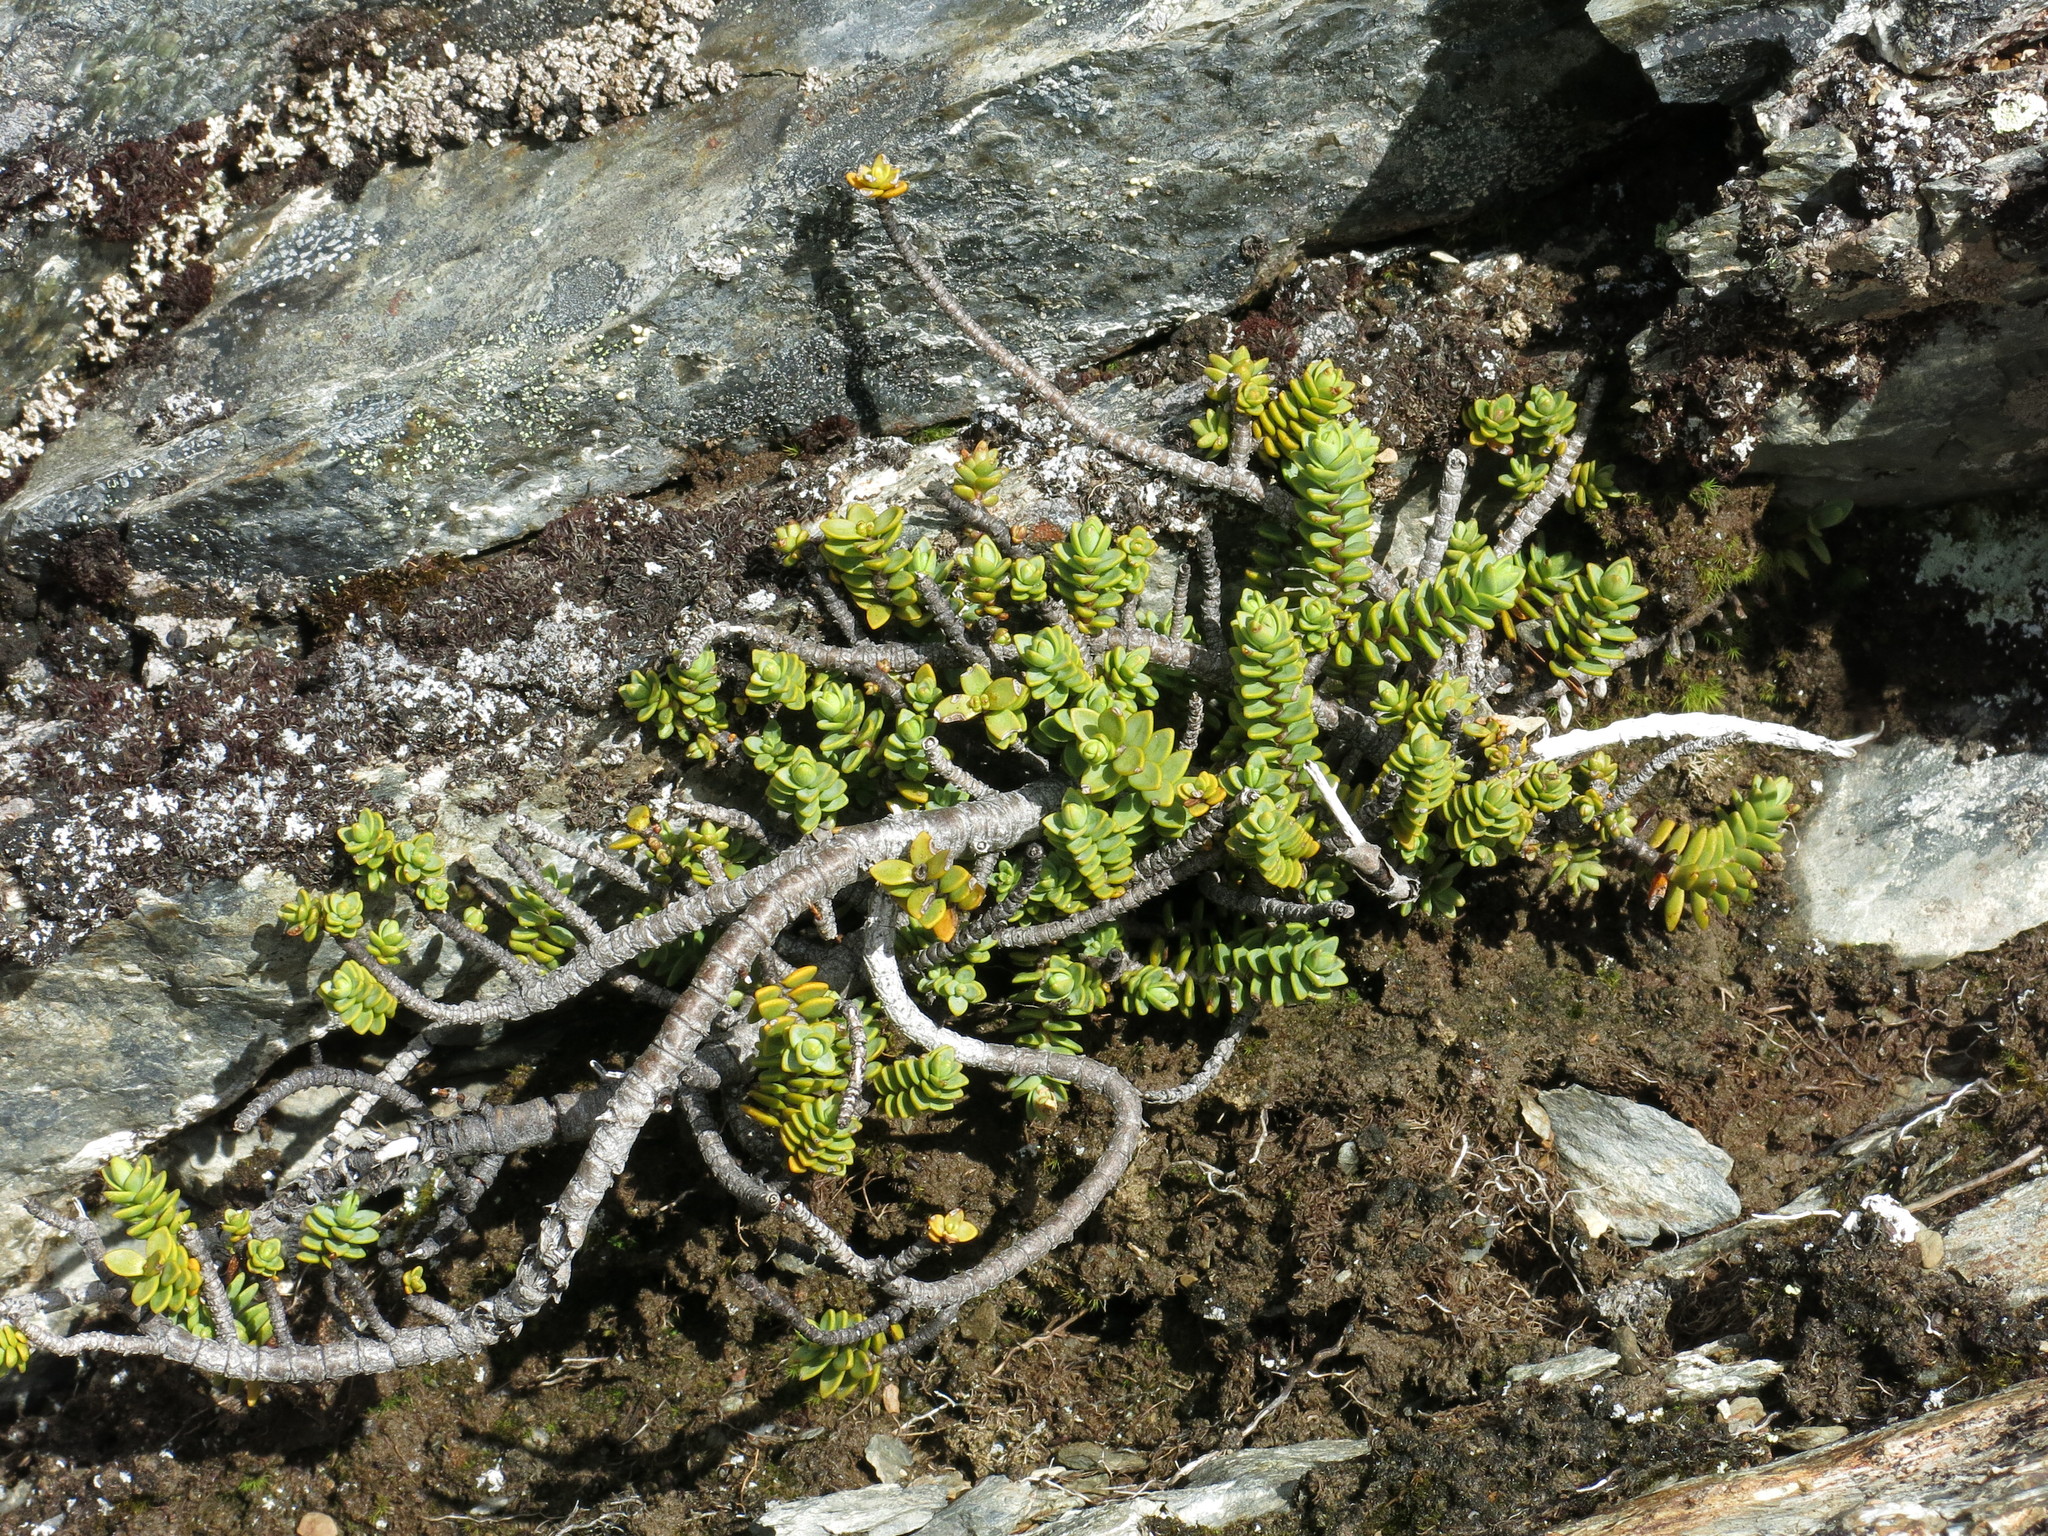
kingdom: Plantae
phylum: Tracheophyta
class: Magnoliopsida
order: Lamiales
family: Plantaginaceae
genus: Veronica
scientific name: Veronica buchananii
